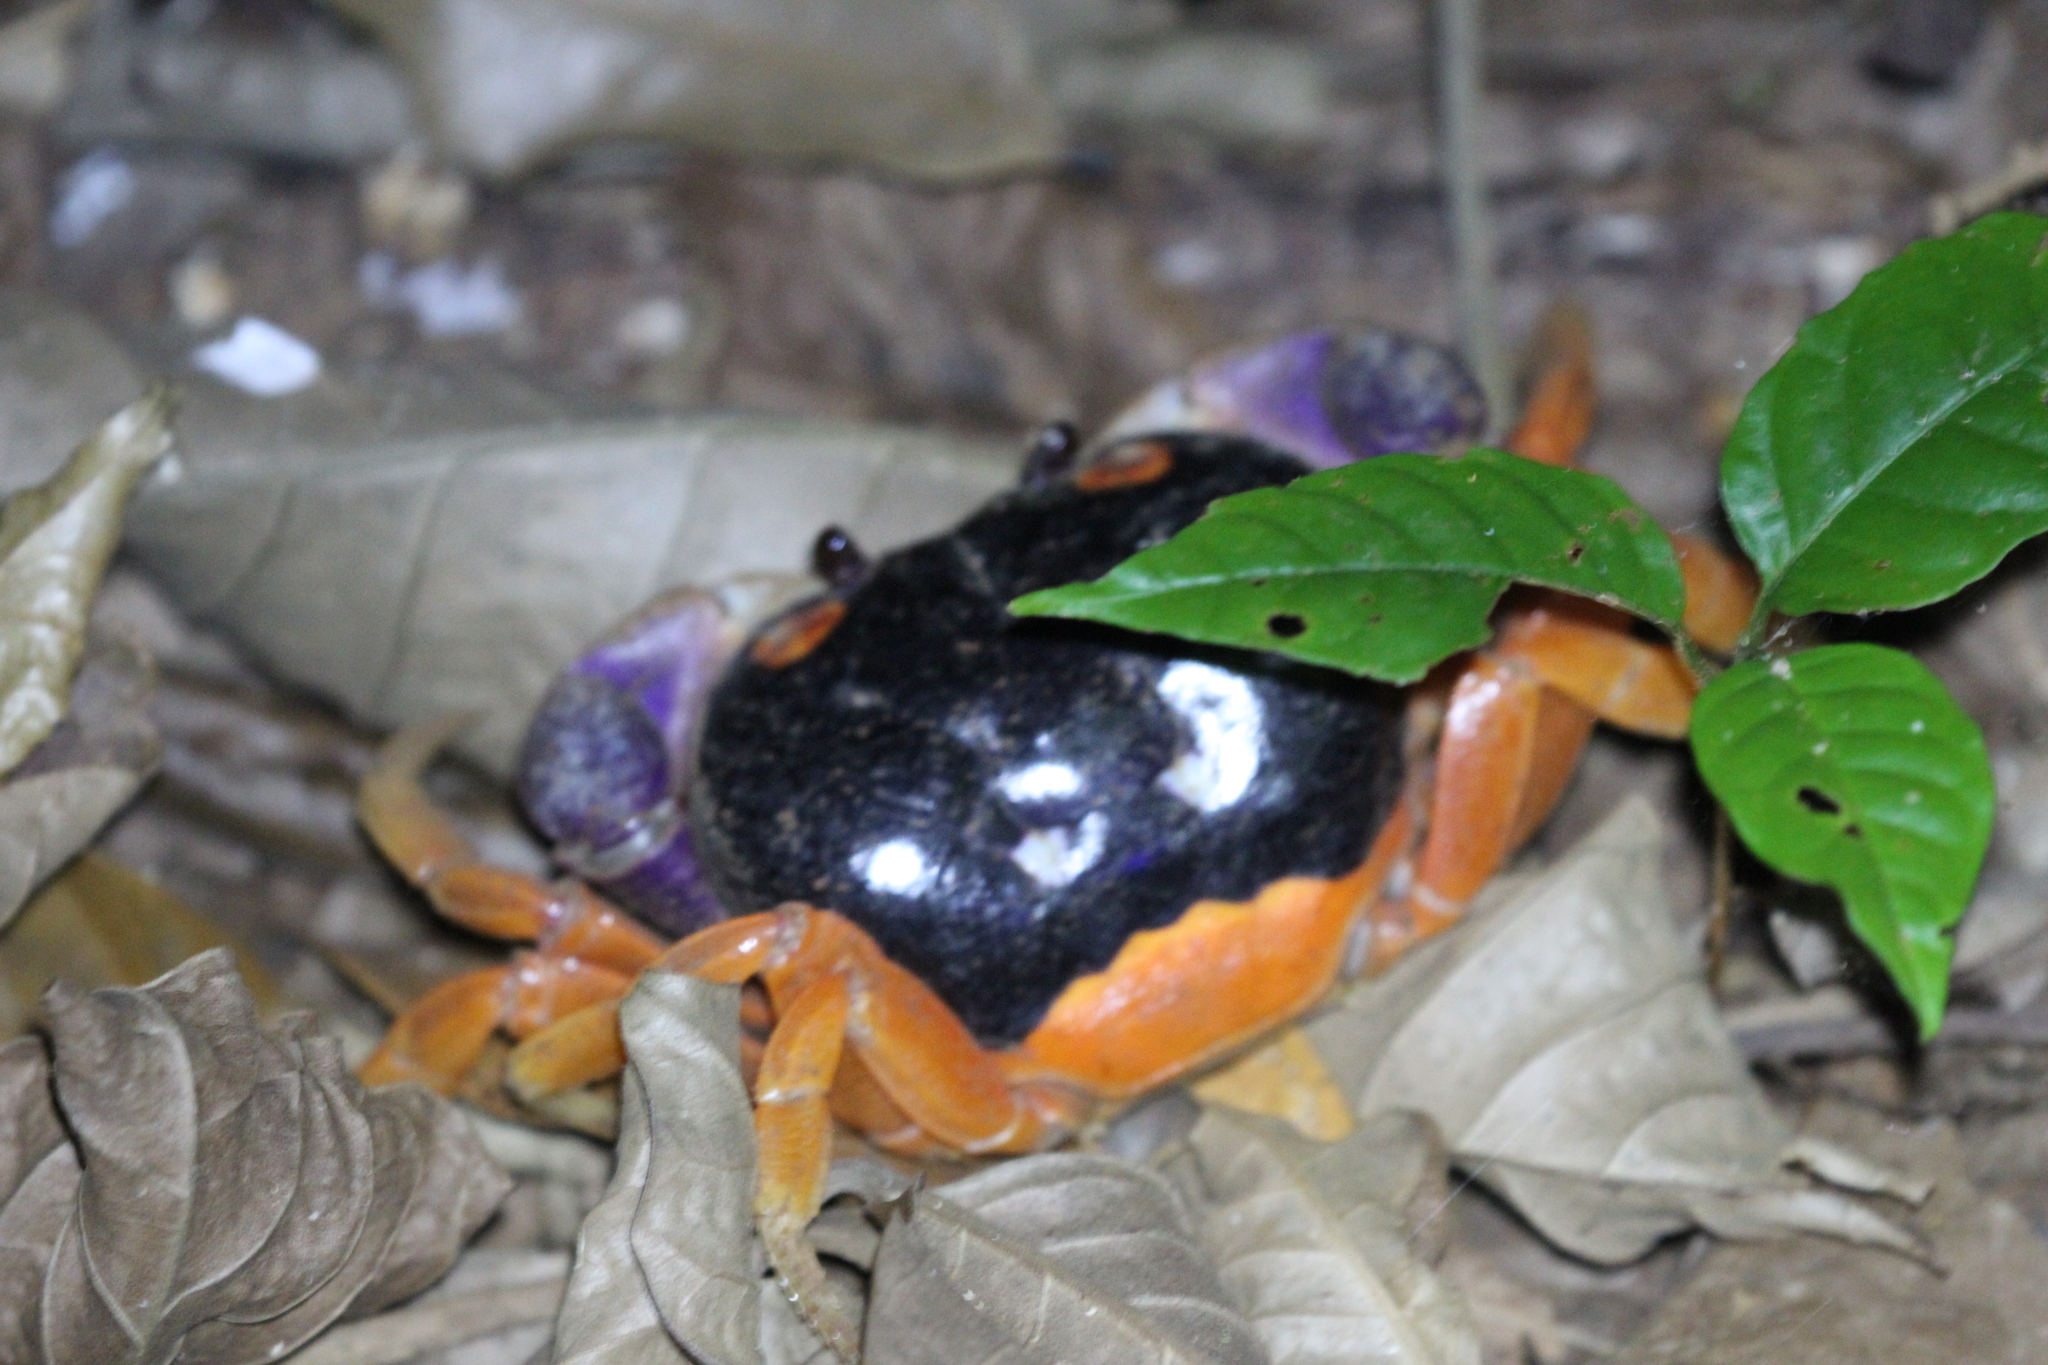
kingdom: Animalia
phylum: Arthropoda
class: Malacostraca
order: Decapoda
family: Gecarcinidae
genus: Gecarcinus
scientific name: Gecarcinus quadratus
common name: Halloween crab
